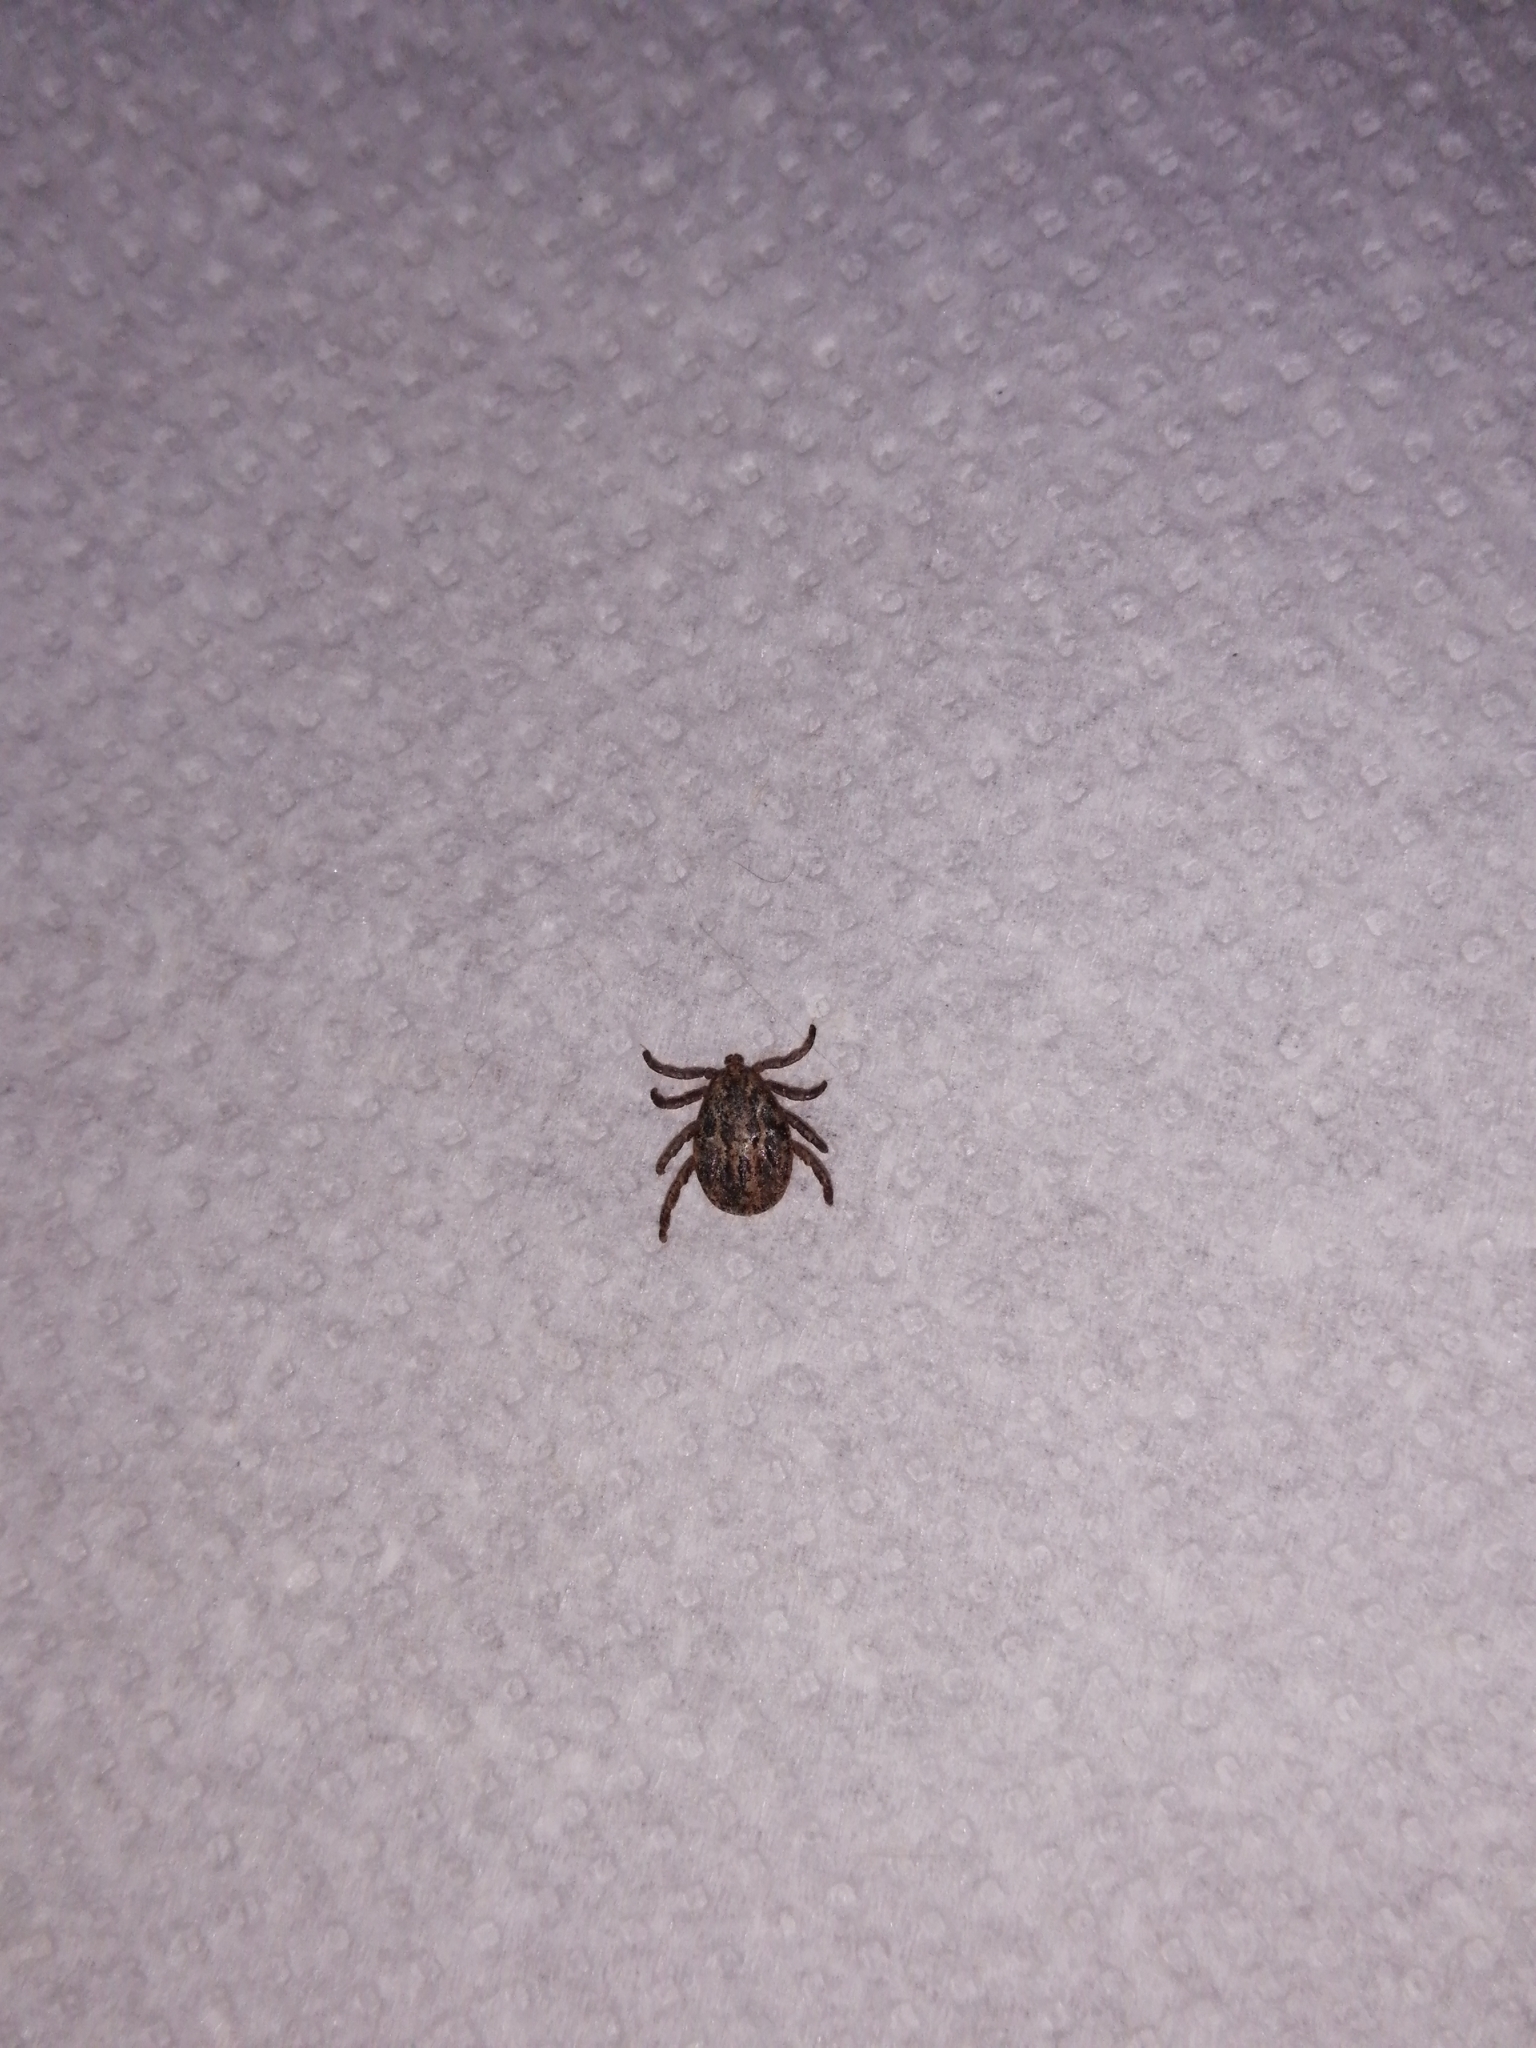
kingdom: Animalia
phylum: Arthropoda
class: Arachnida
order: Ixodida
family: Ixodidae
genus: Dermacentor
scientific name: Dermacentor marginatus
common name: Ornate sheep tick
